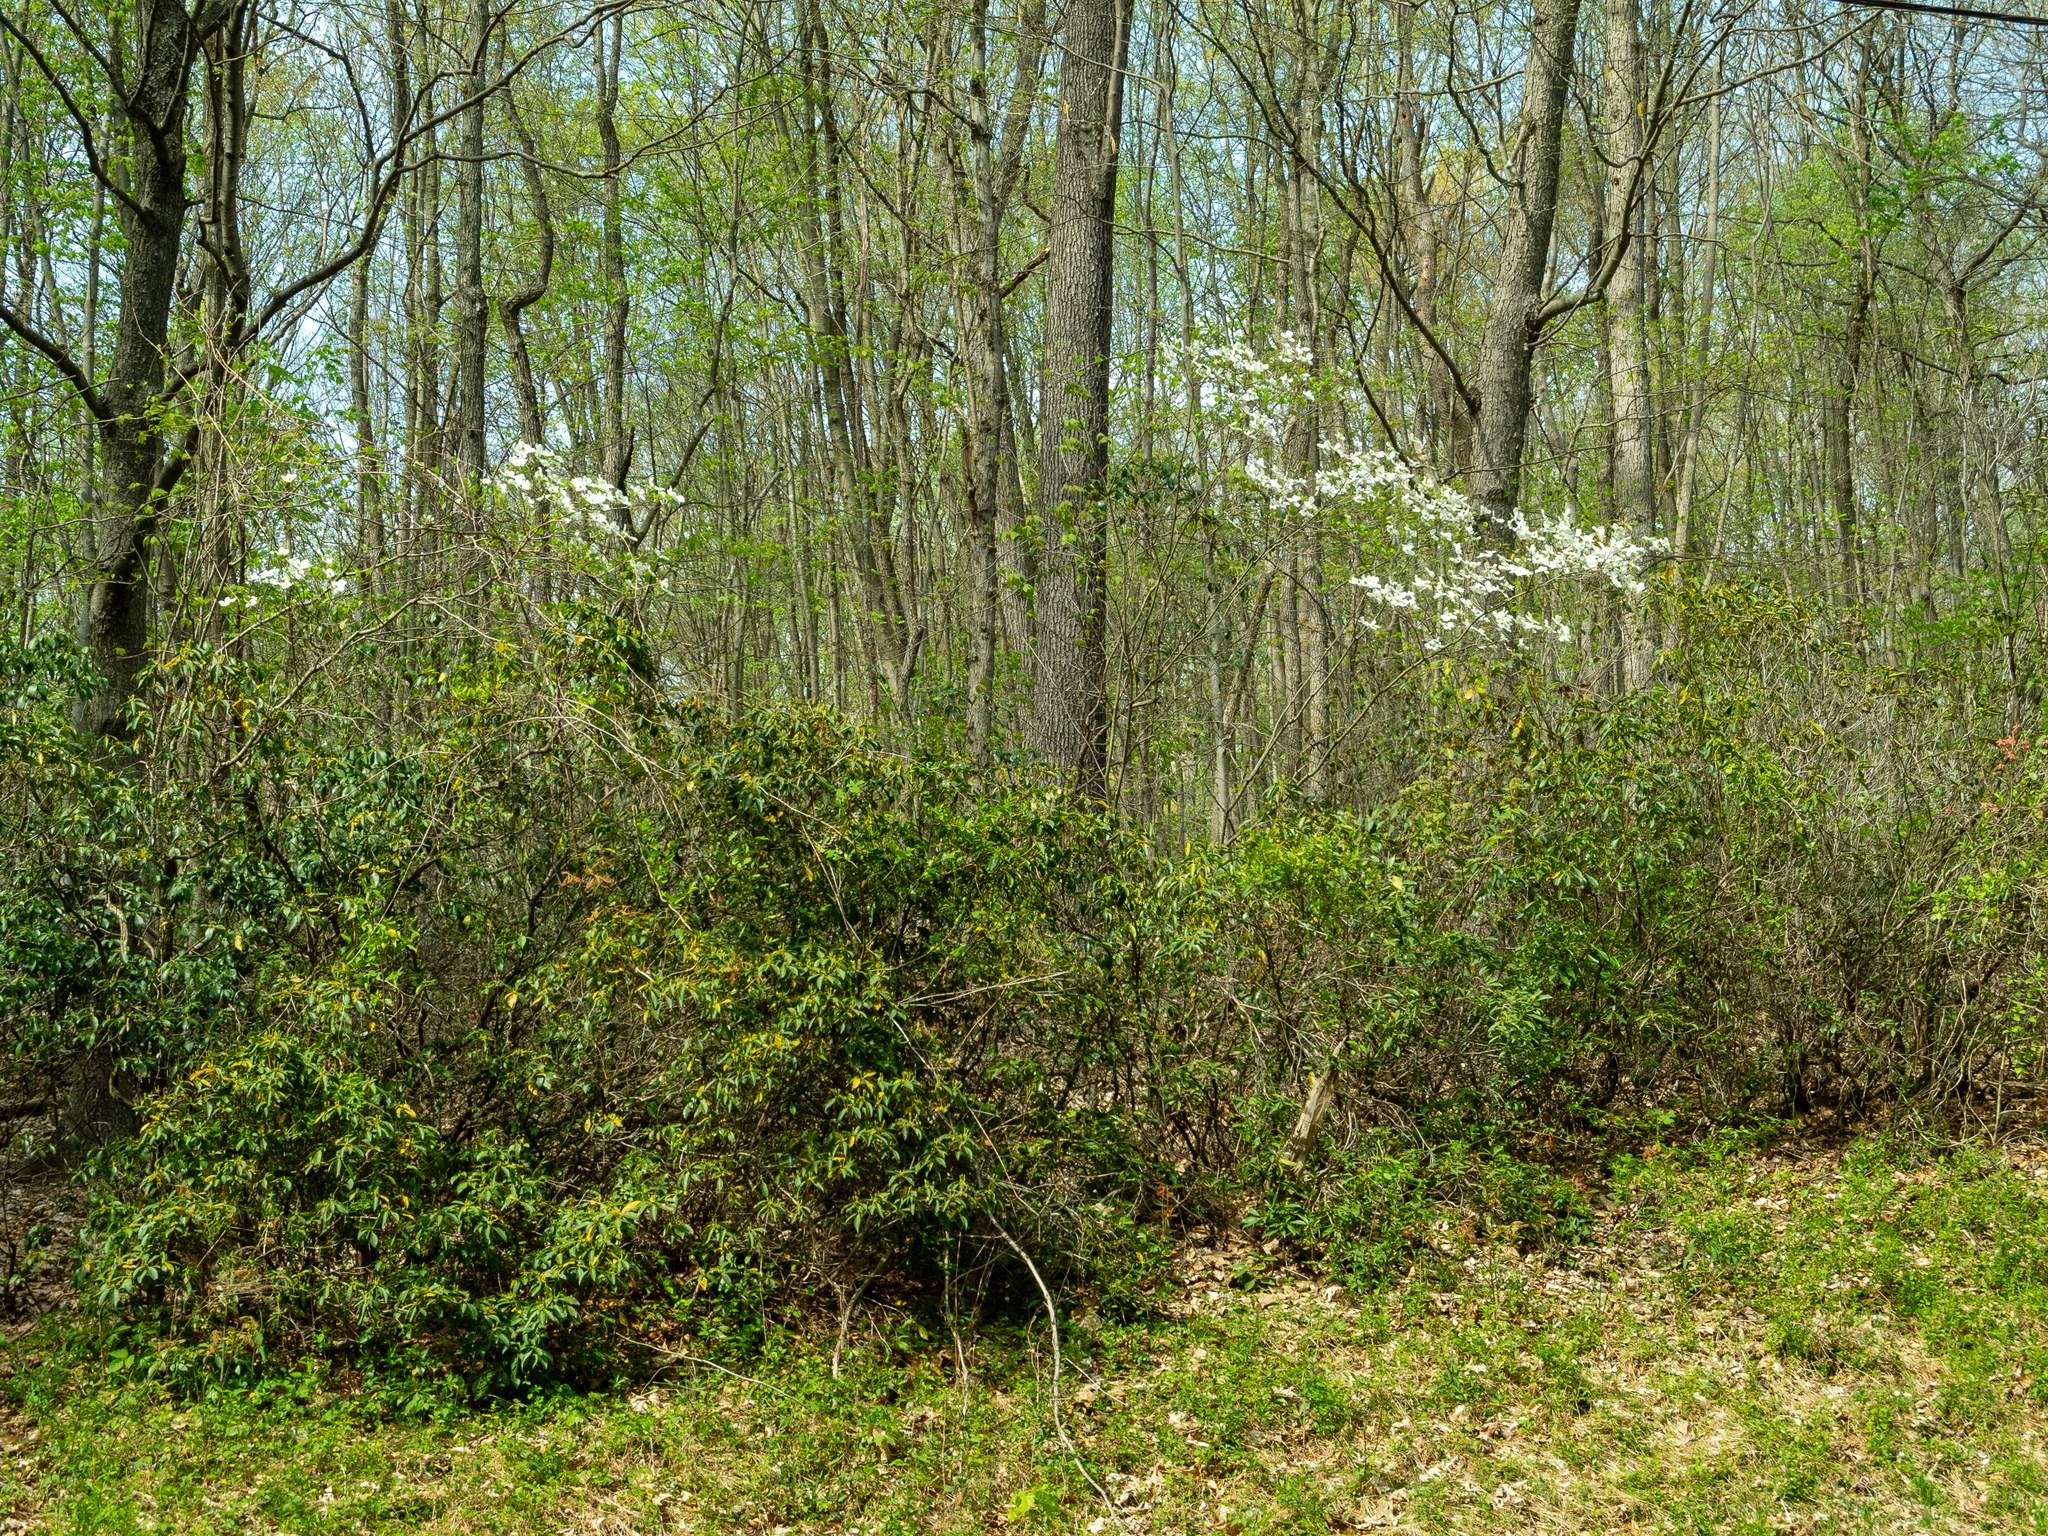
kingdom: Plantae
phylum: Tracheophyta
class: Magnoliopsida
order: Cornales
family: Cornaceae
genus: Cornus
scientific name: Cornus florida
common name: Flowering dogwood
